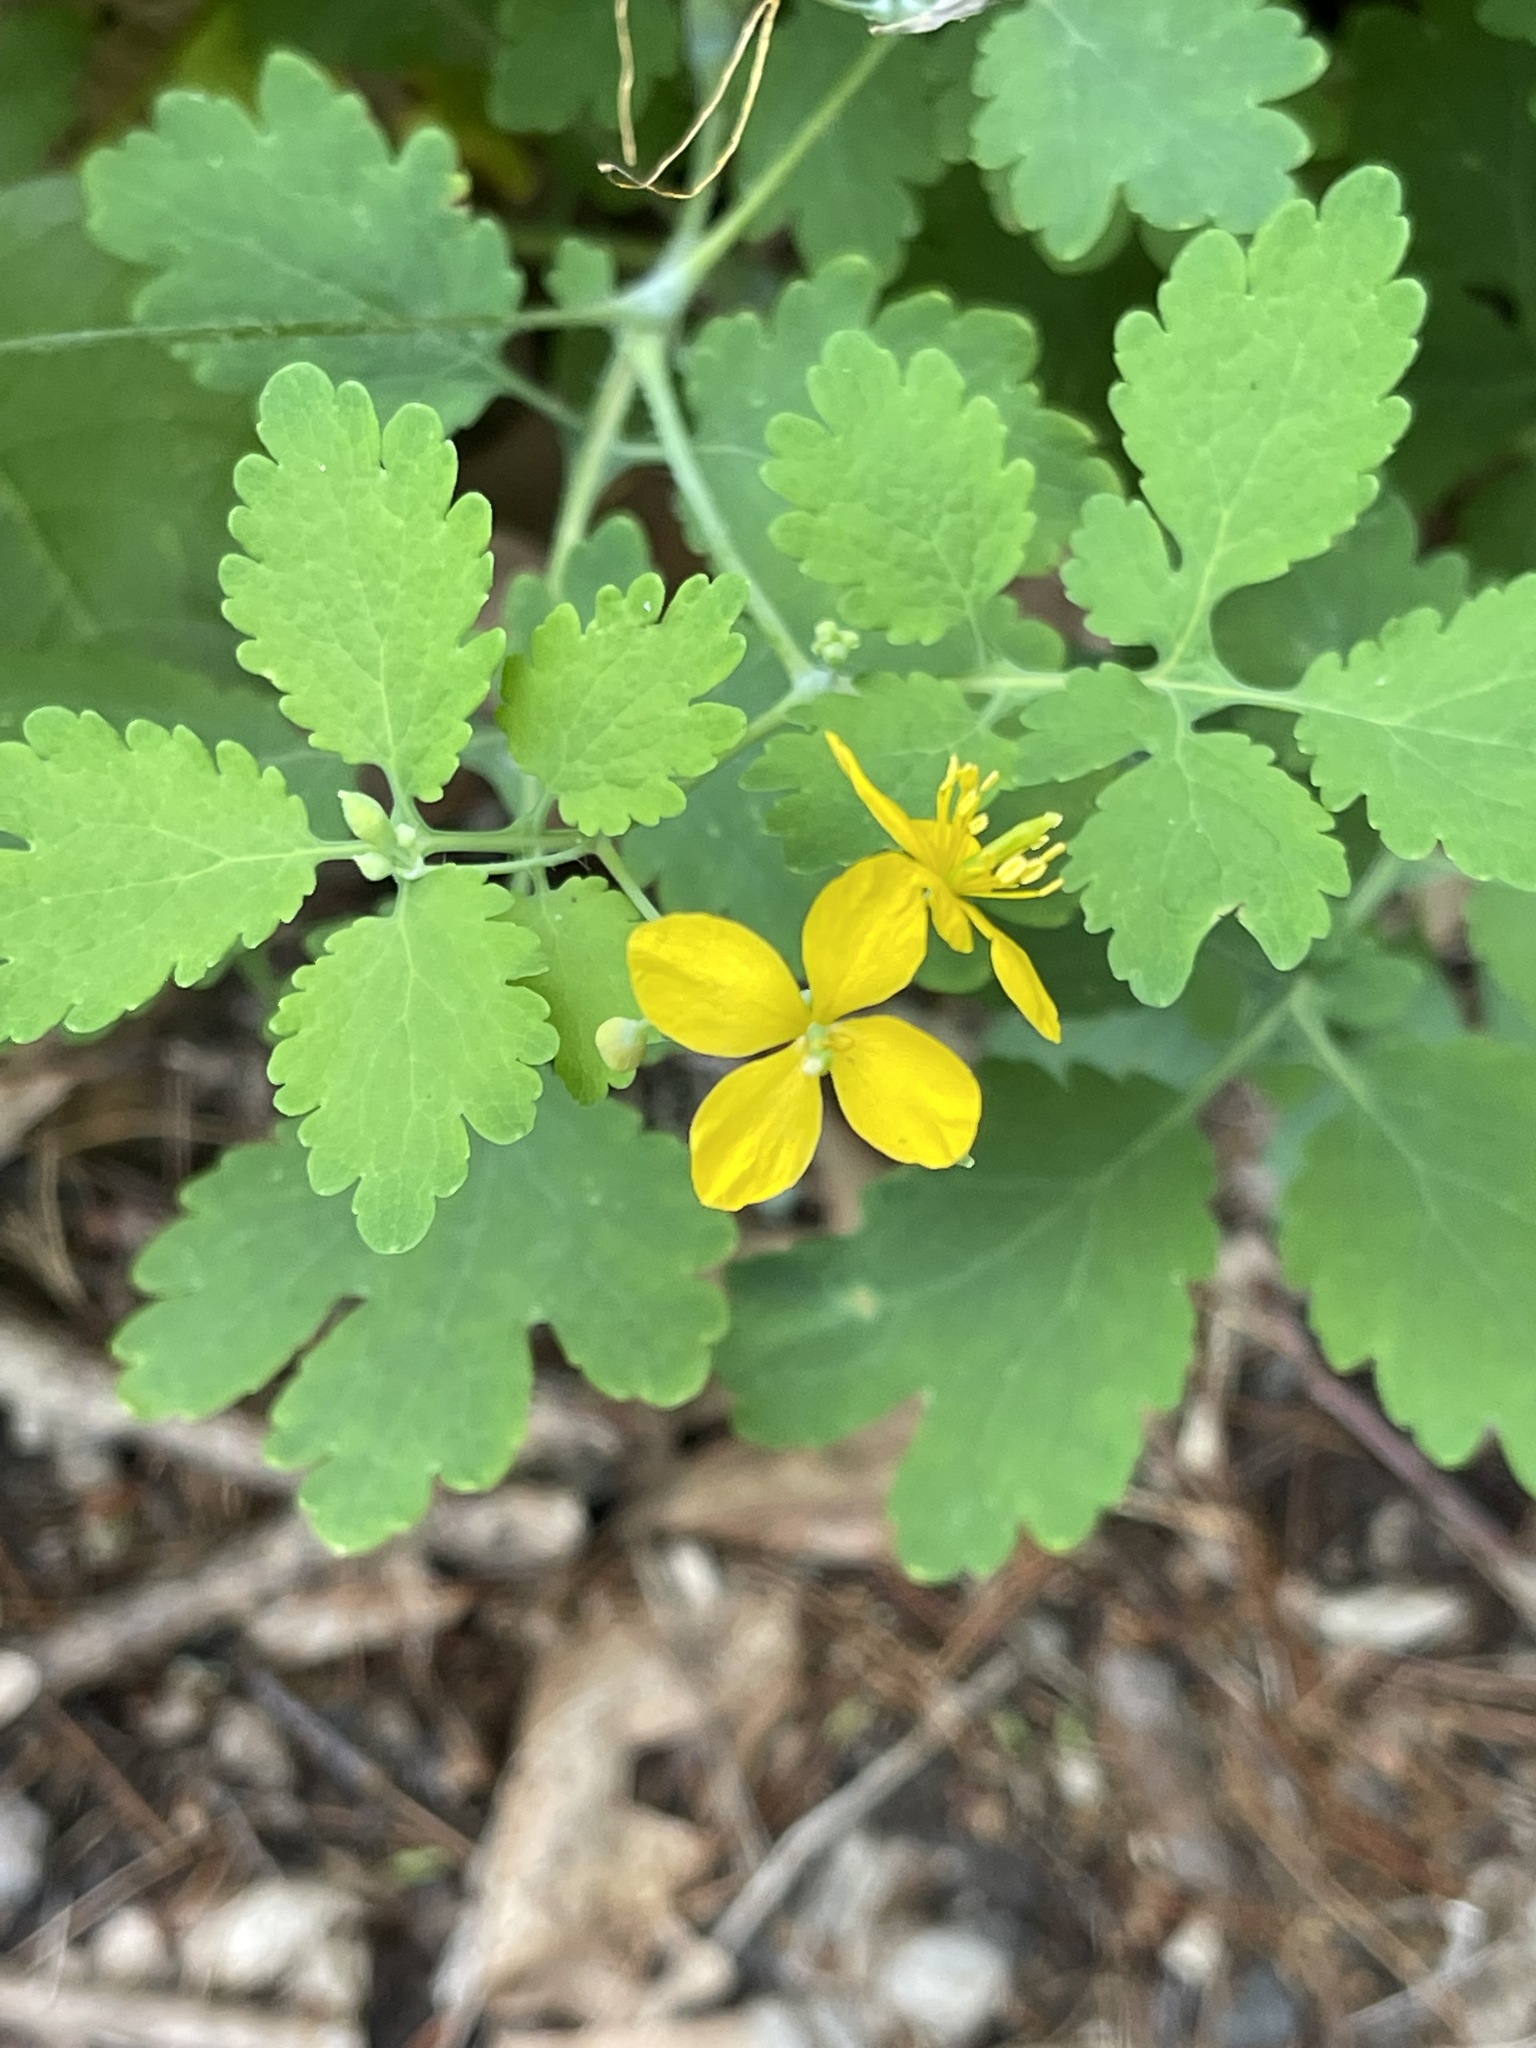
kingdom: Plantae
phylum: Tracheophyta
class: Magnoliopsida
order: Ranunculales
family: Papaveraceae
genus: Chelidonium
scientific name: Chelidonium majus
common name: Greater celandine
